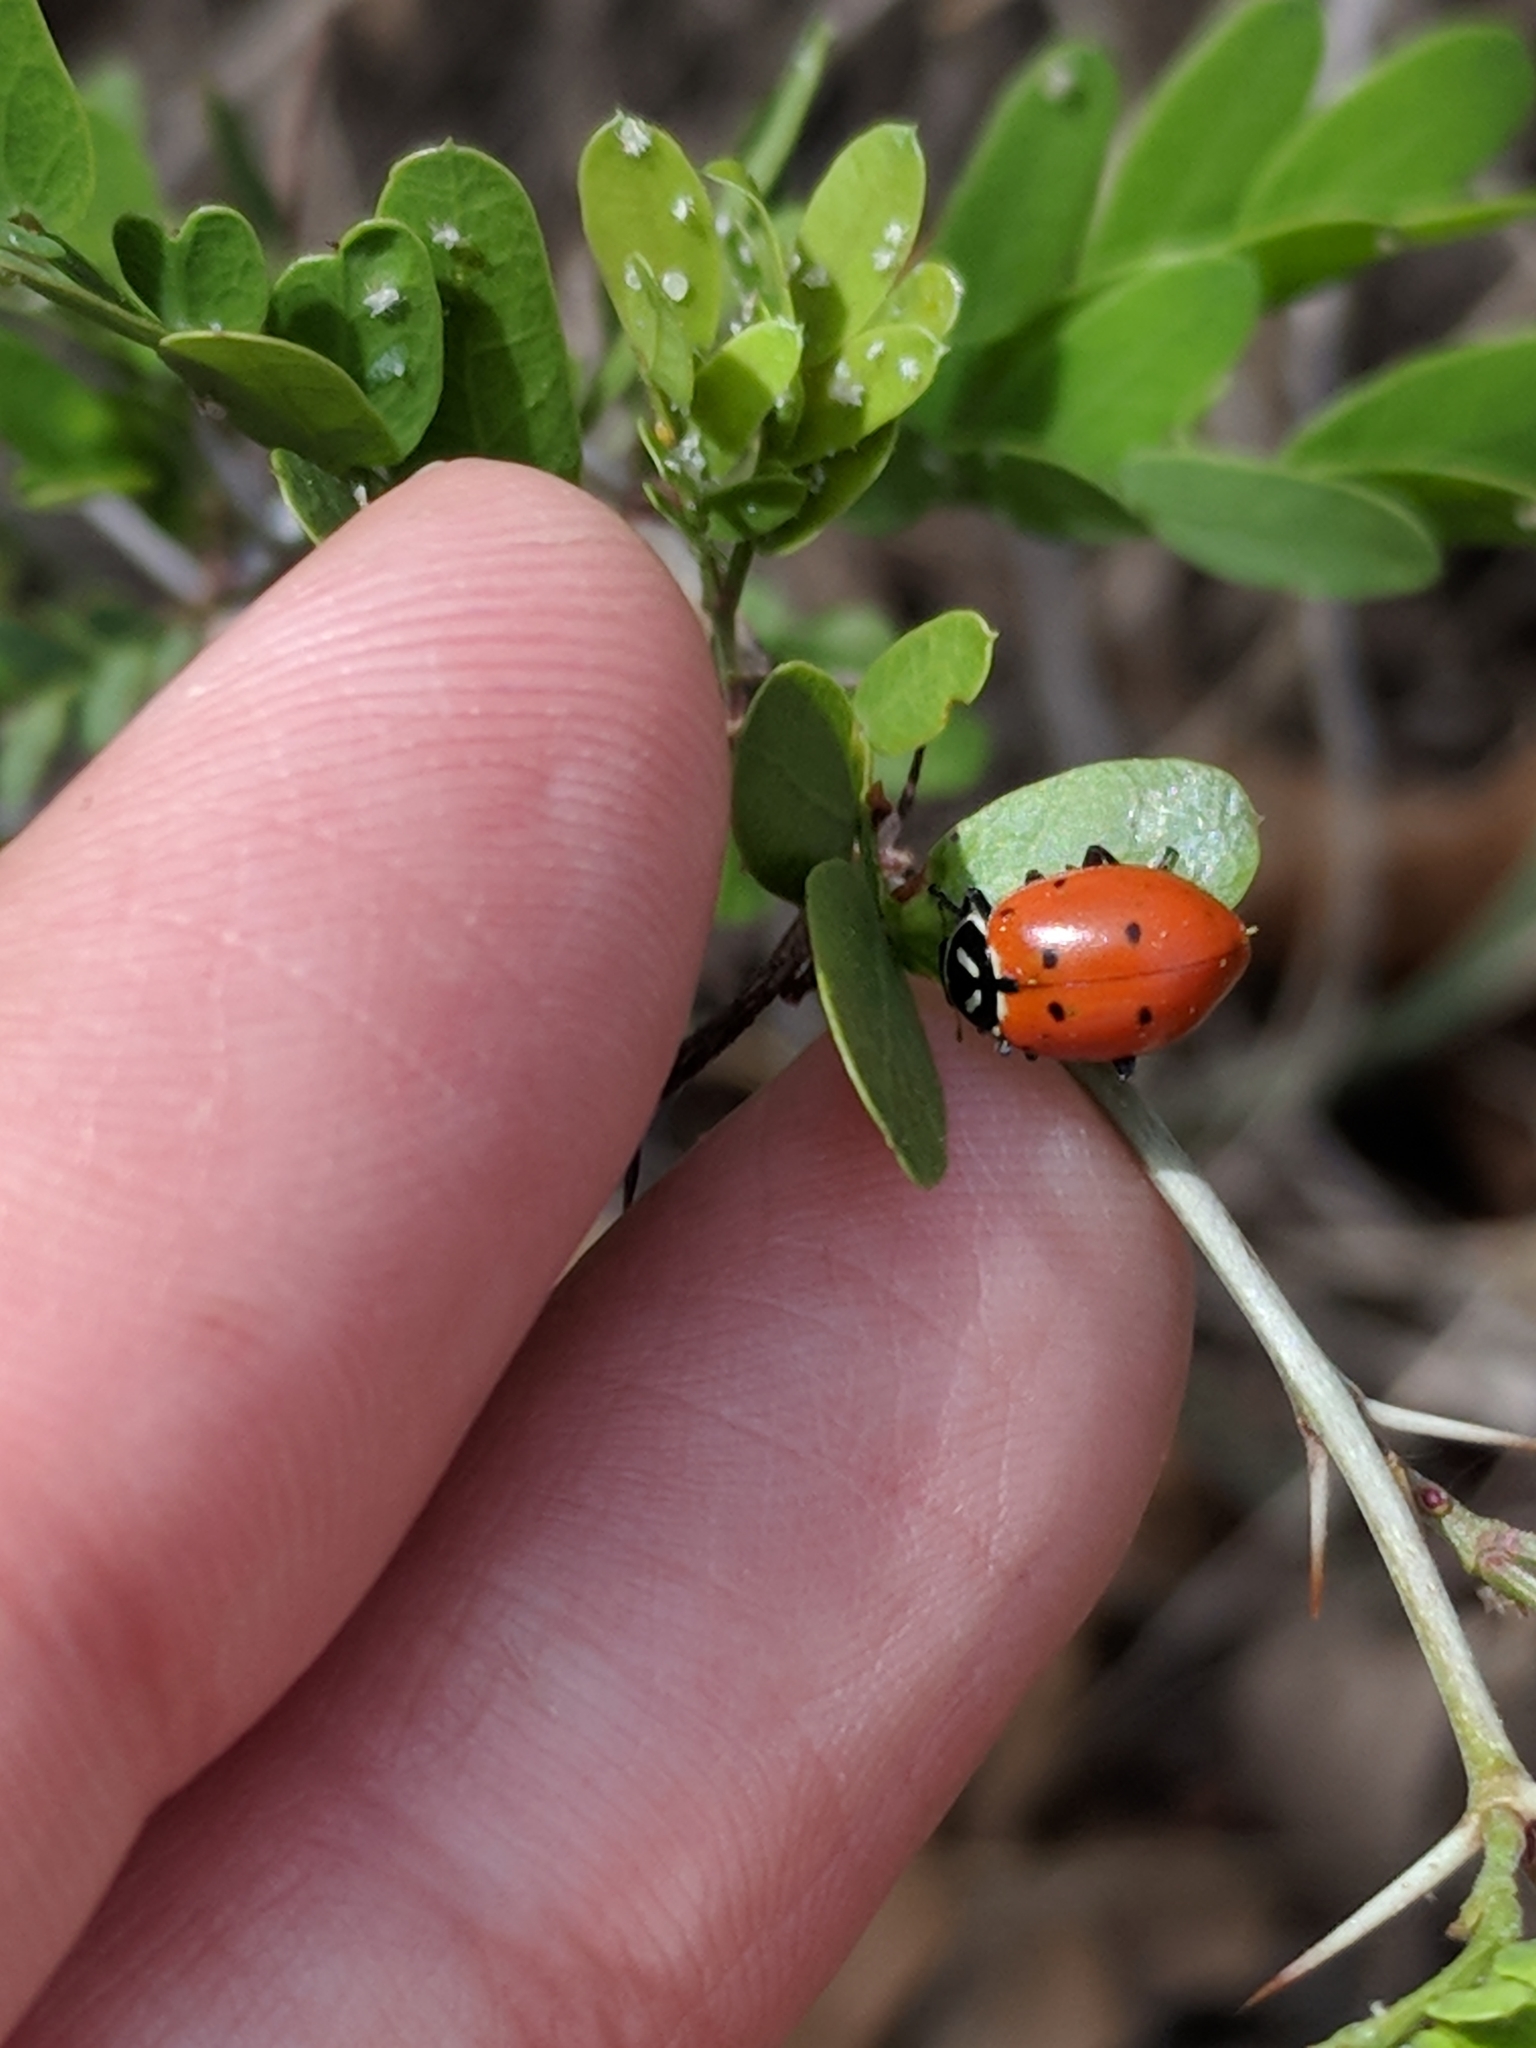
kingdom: Animalia
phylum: Arthropoda
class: Insecta
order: Coleoptera
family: Coccinellidae
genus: Hippodamia
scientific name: Hippodamia convergens
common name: Convergent lady beetle
